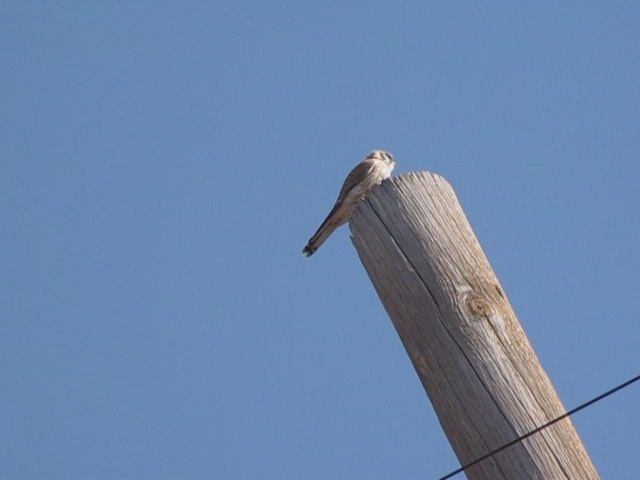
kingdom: Animalia
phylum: Chordata
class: Aves
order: Falconiformes
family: Falconidae
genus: Falco
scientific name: Falco sparverius
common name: American kestrel
